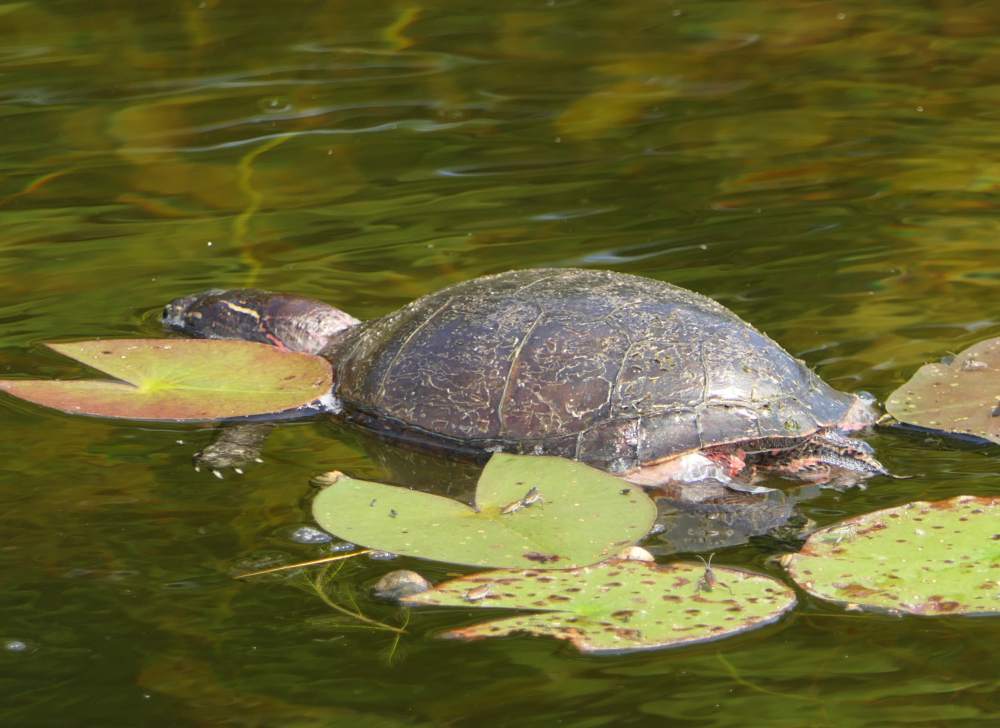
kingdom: Animalia
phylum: Chordata
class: Testudines
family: Emydidae
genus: Chrysemys
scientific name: Chrysemys picta
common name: Painted turtle
